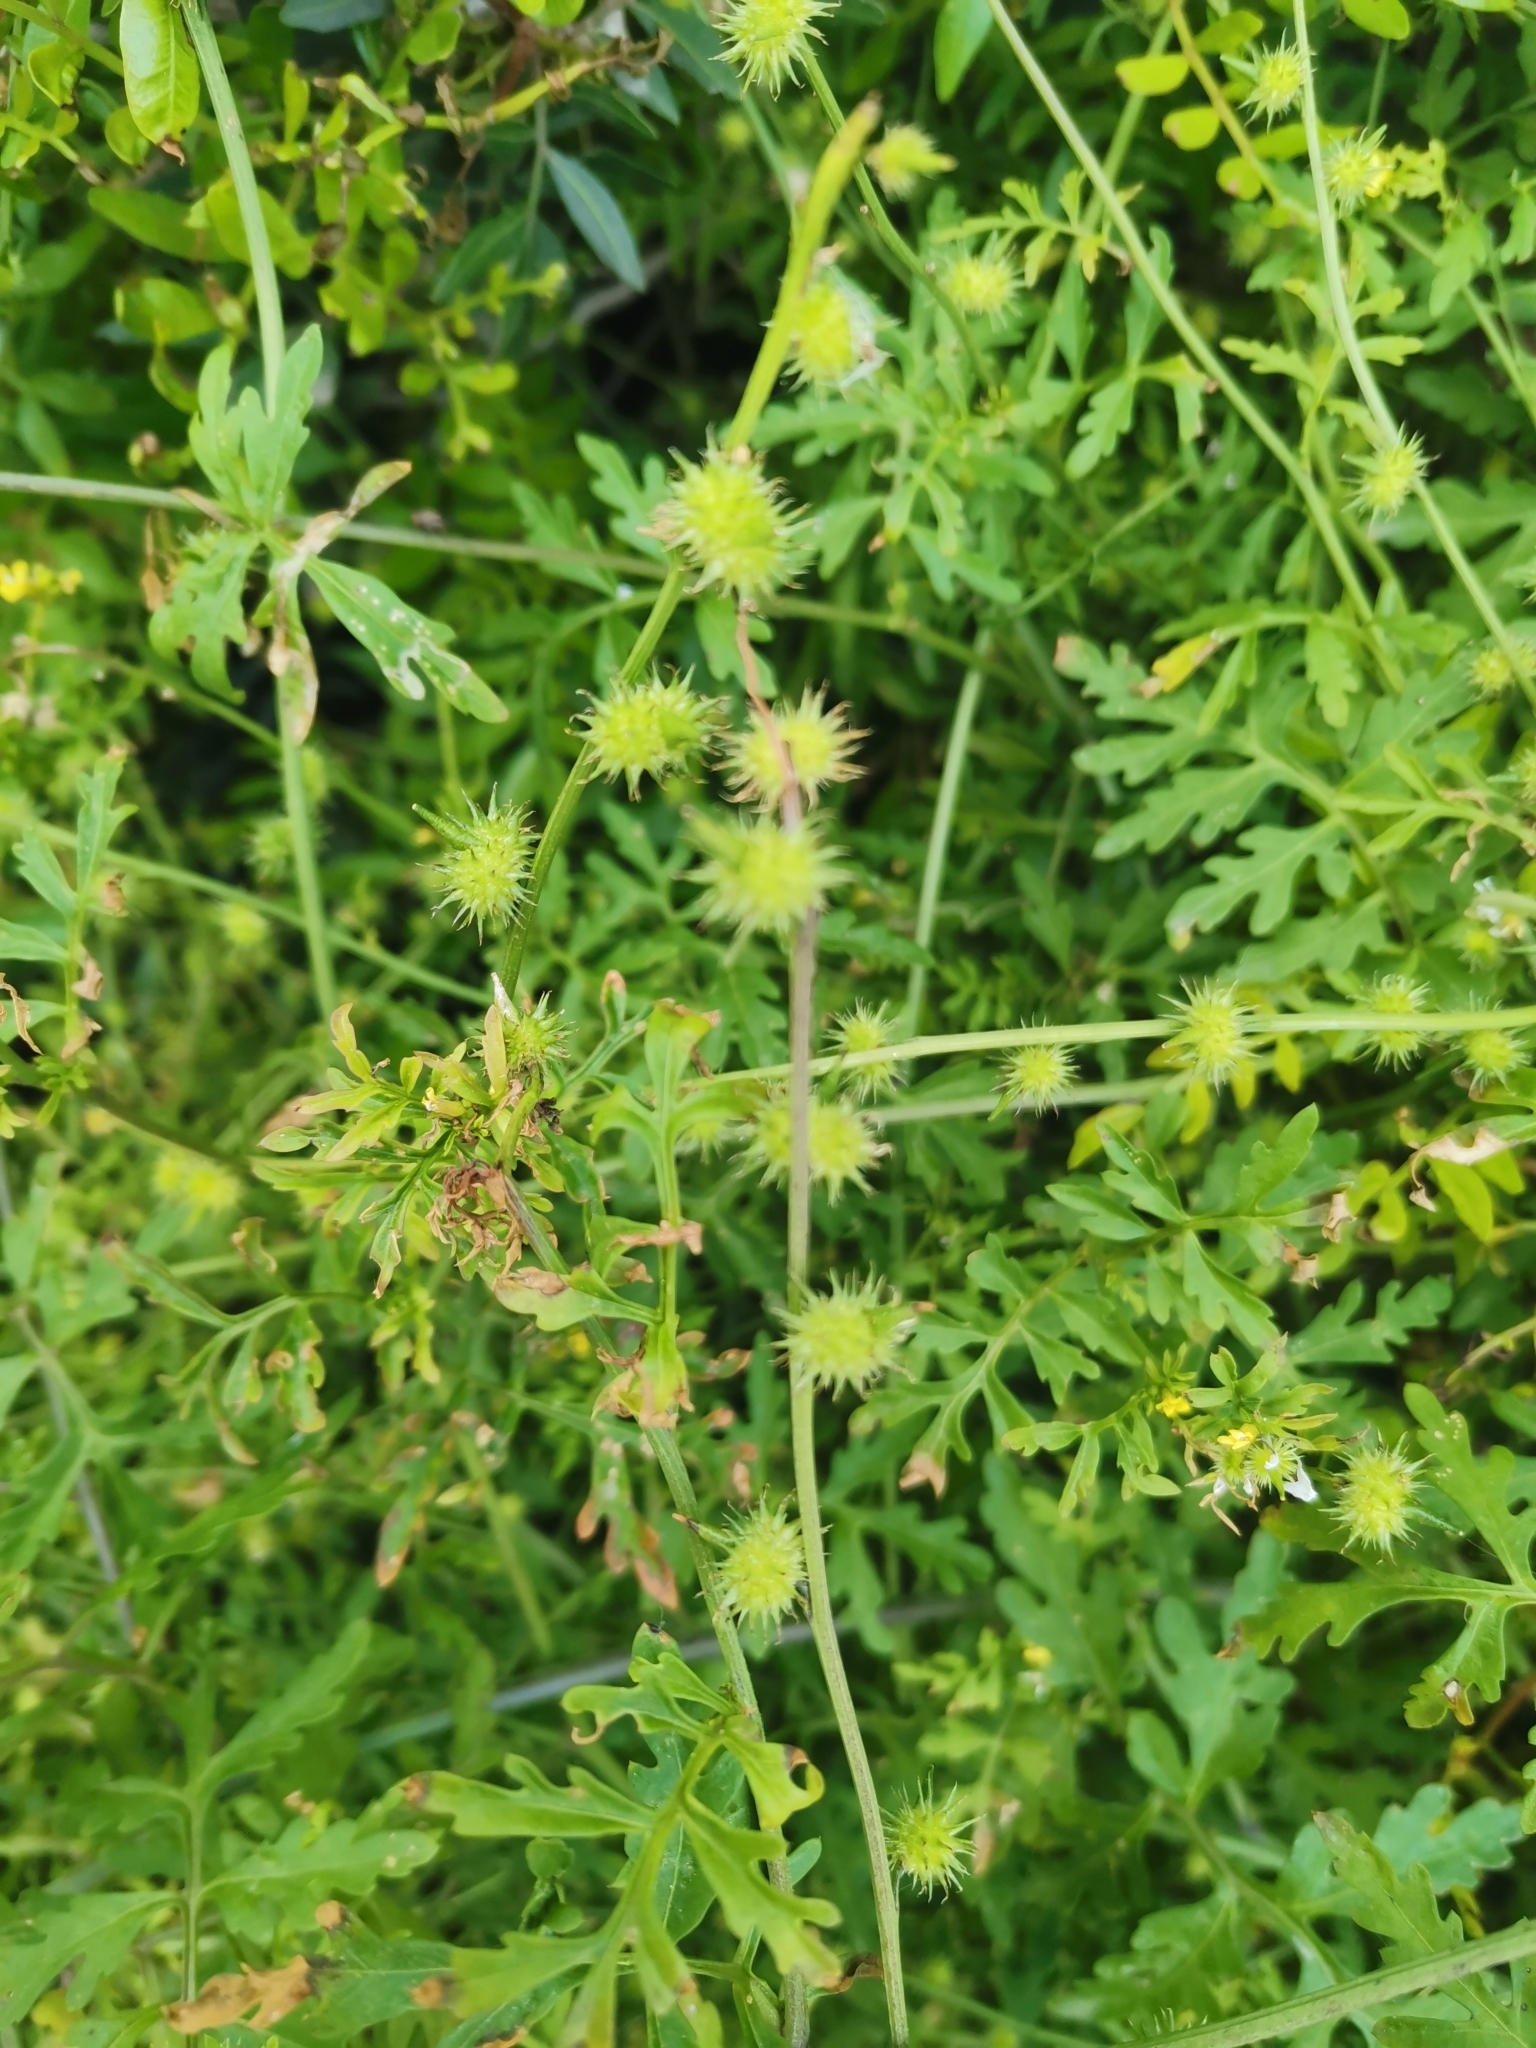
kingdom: Plantae
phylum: Tracheophyta
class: Magnoliopsida
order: Brassicales
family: Brassicaceae
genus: Succowia
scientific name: Succowia balearica
